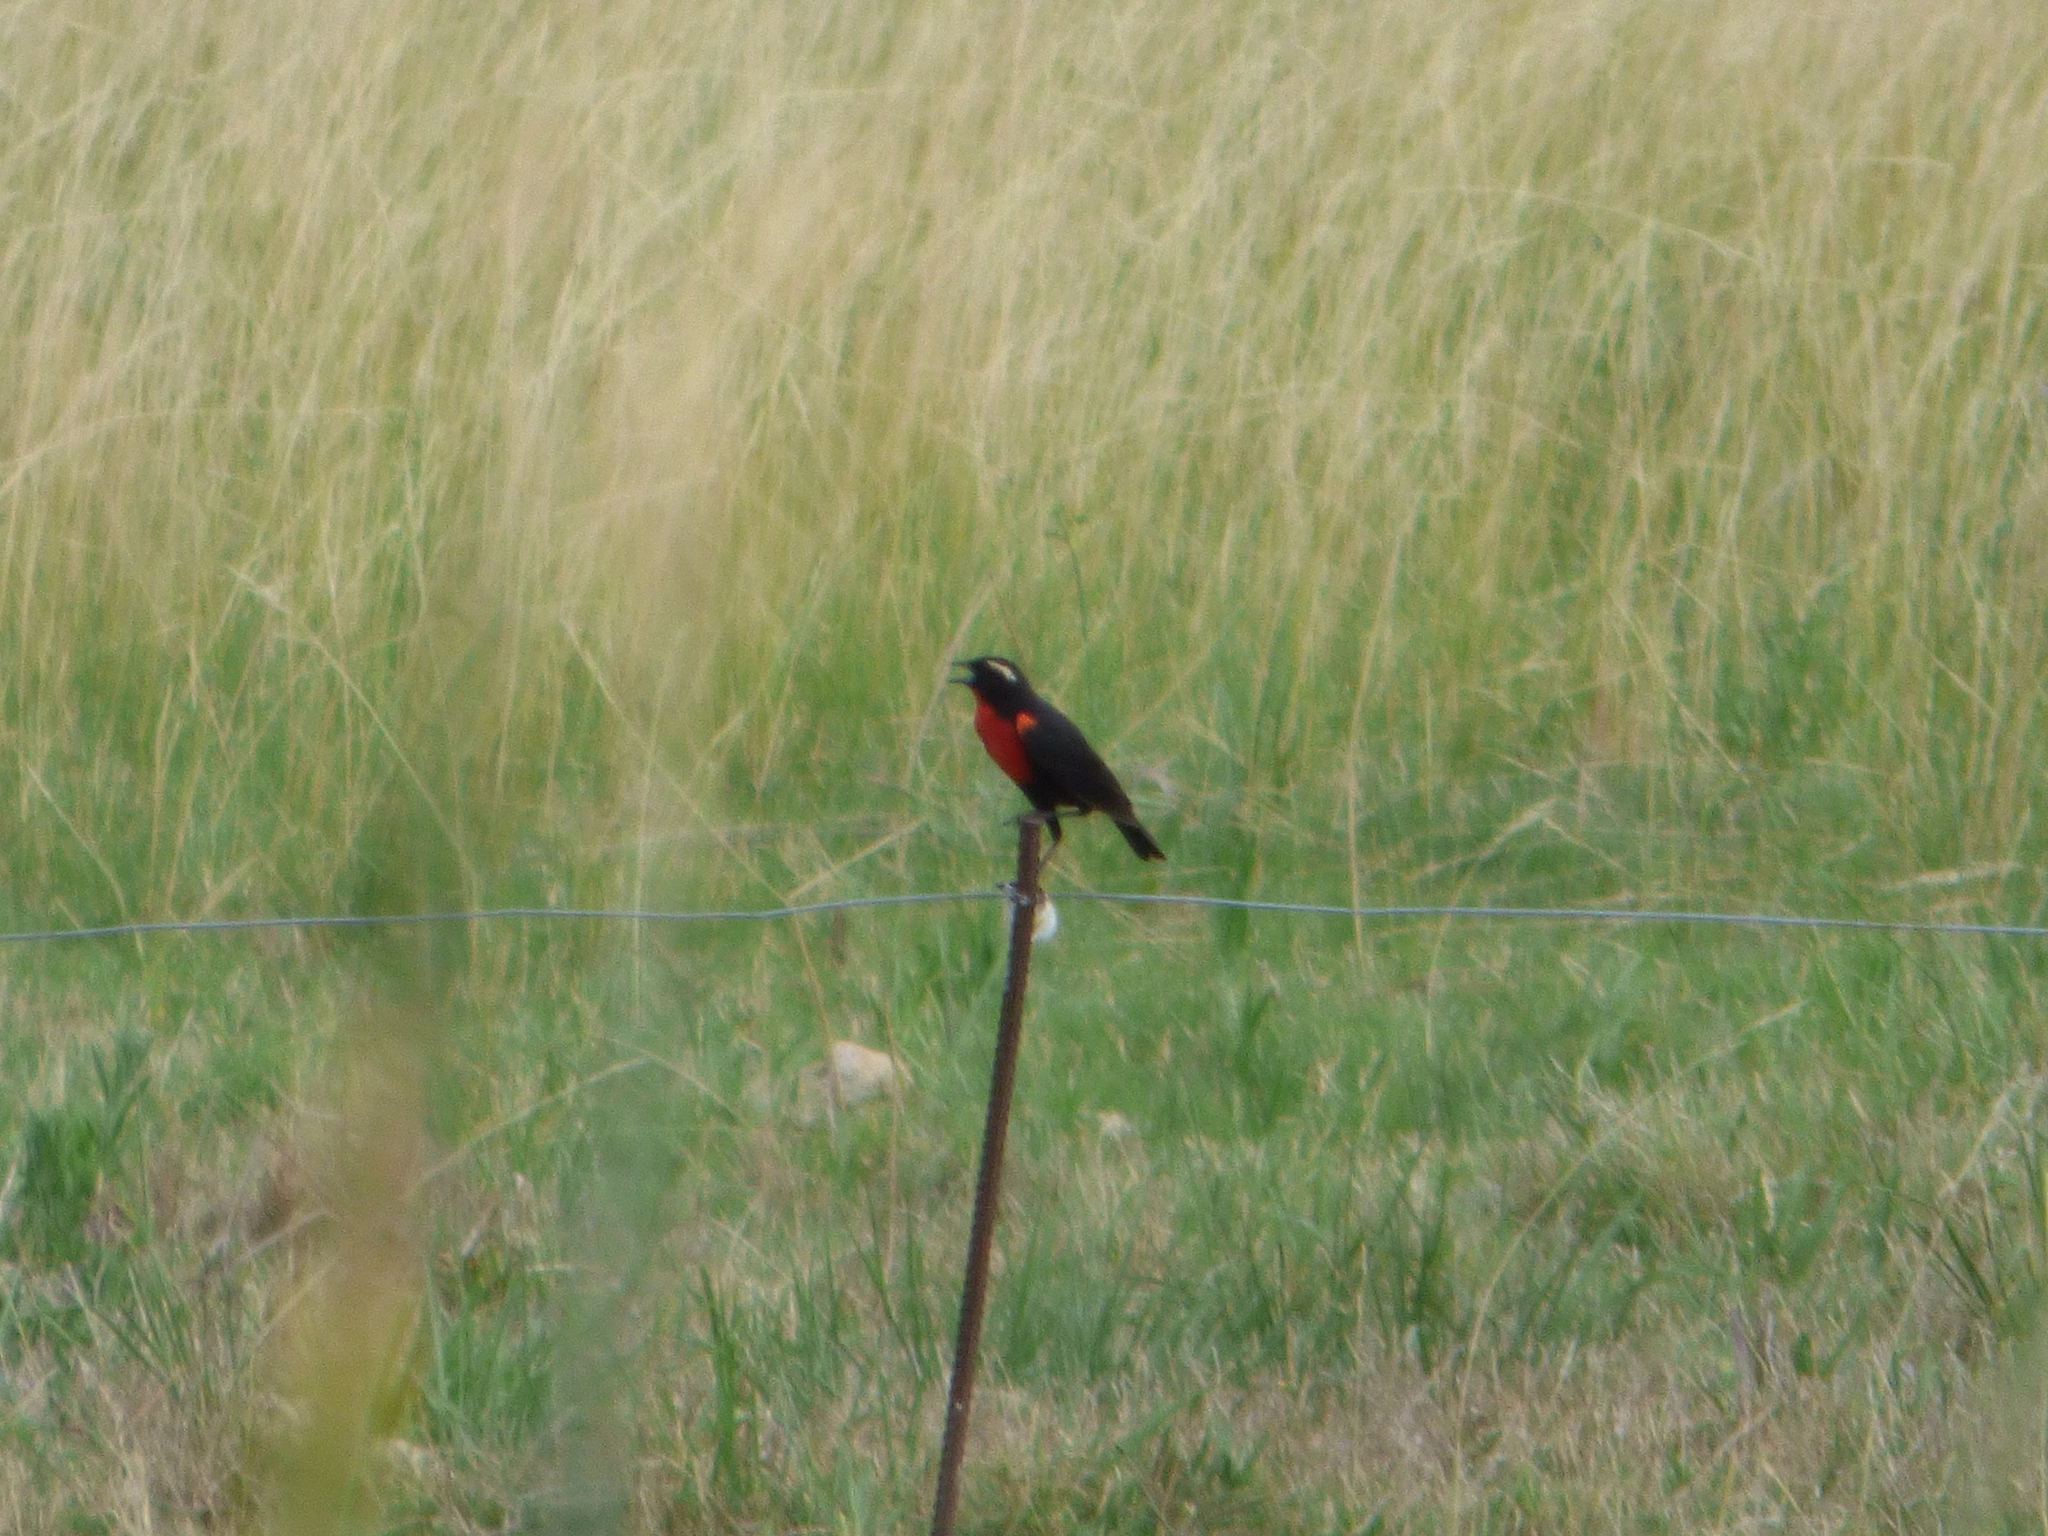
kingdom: Animalia
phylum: Chordata
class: Aves
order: Passeriformes
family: Icteridae
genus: Sturnella
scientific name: Sturnella superciliaris
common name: White-browed blackbird
